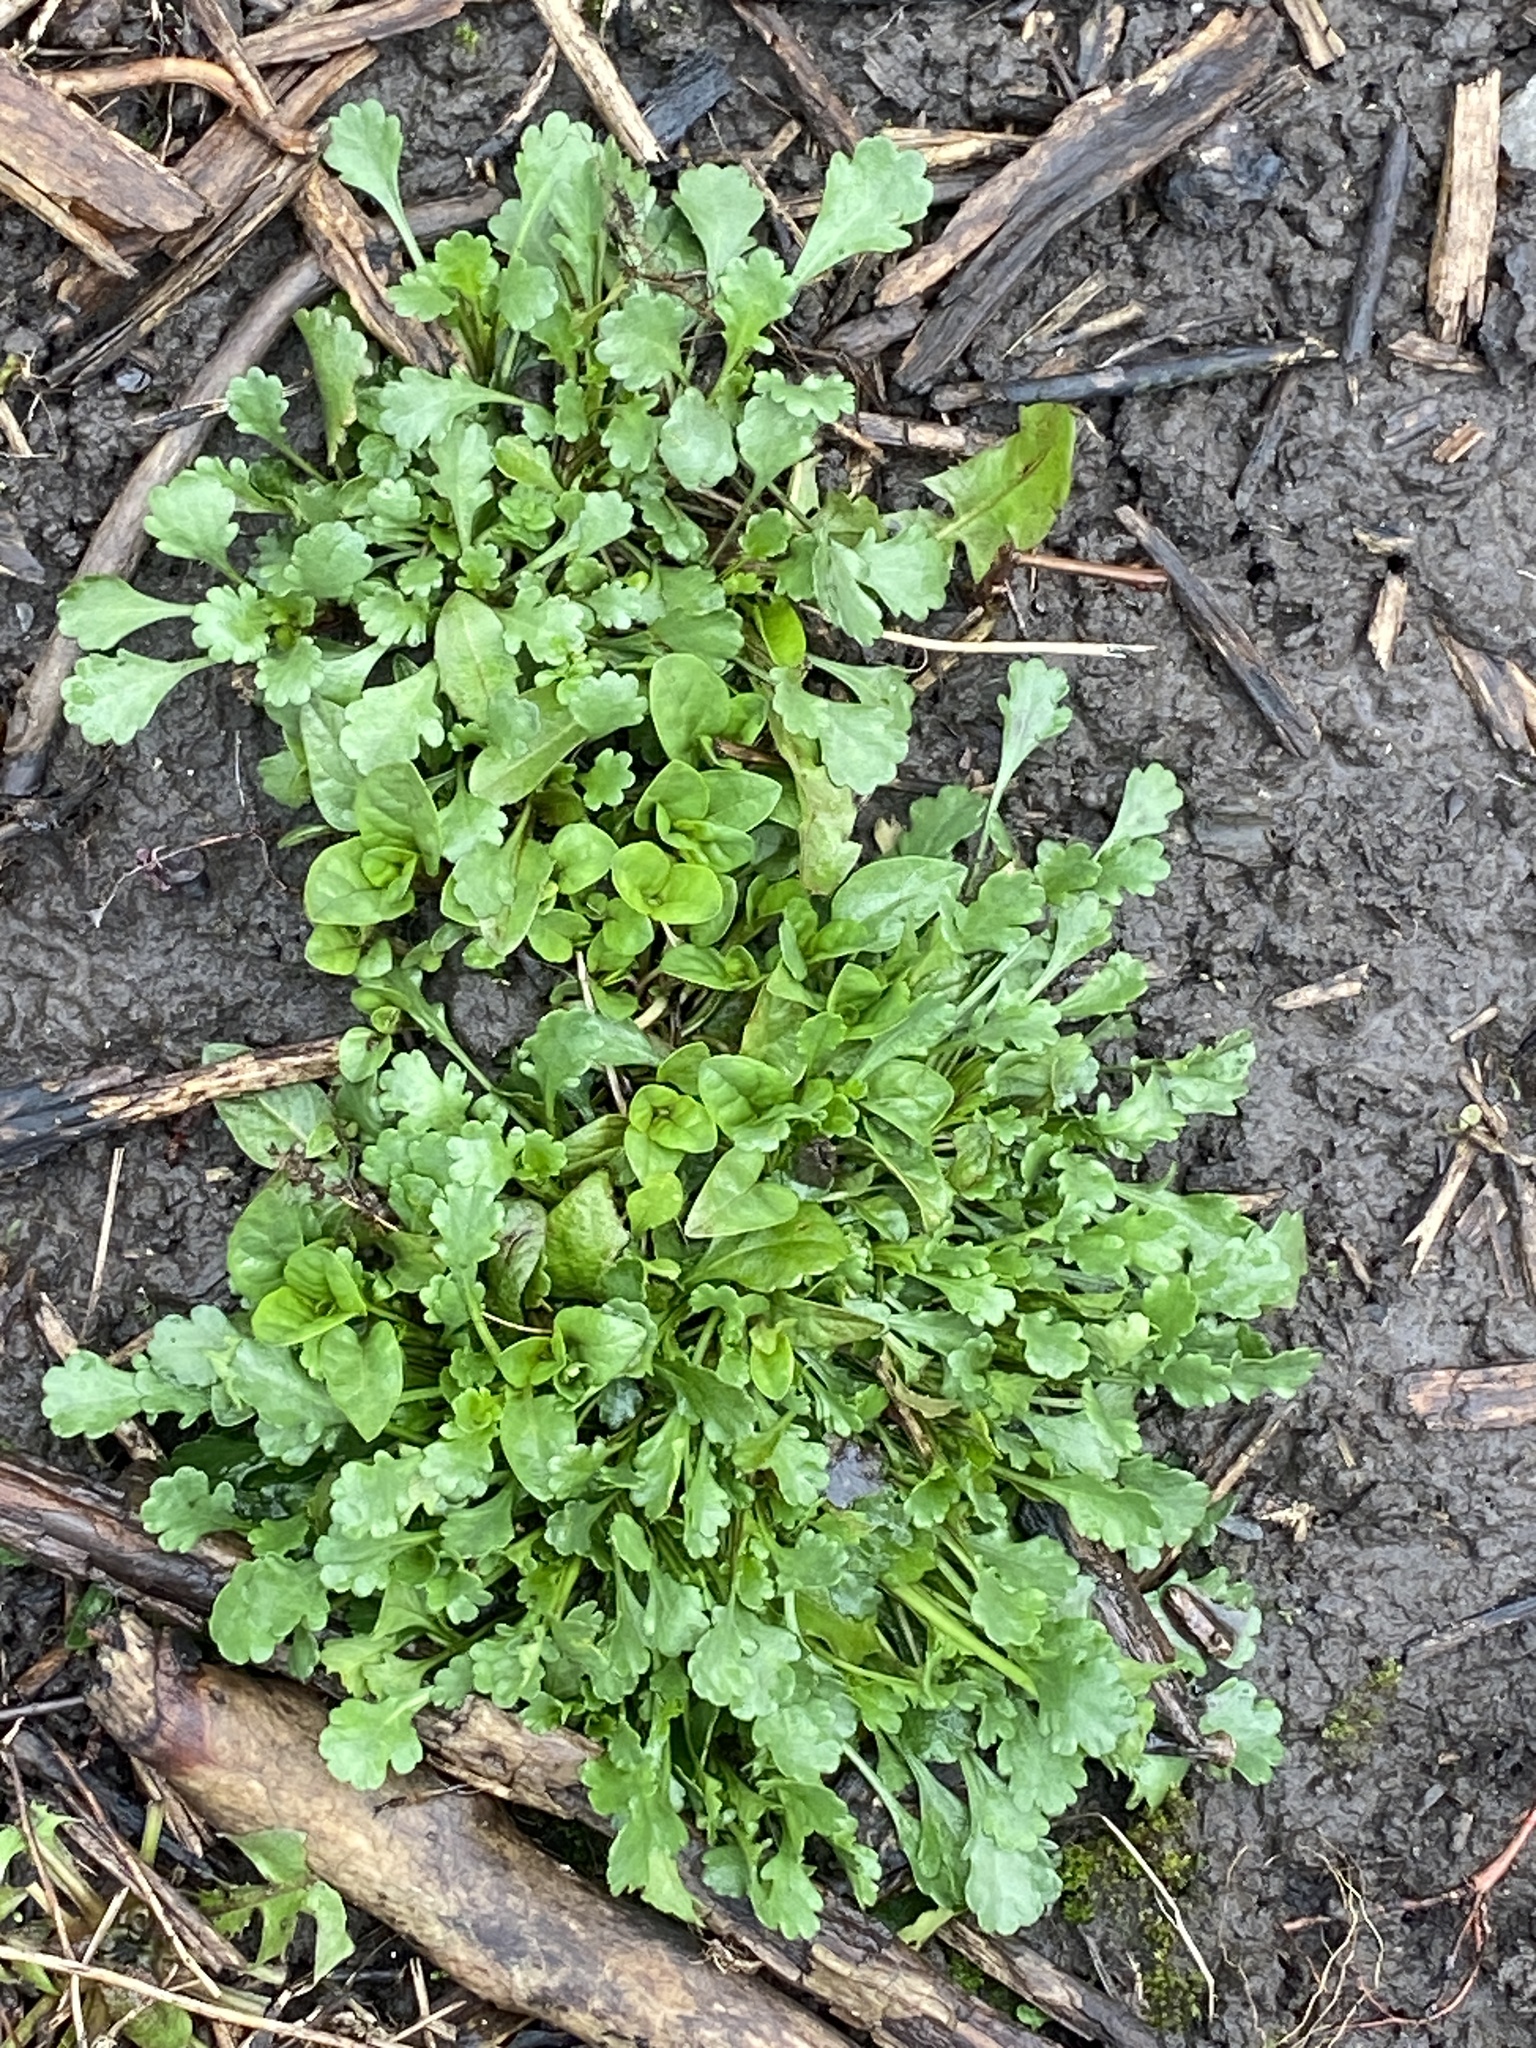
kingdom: Plantae
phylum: Tracheophyta
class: Magnoliopsida
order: Asterales
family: Asteraceae
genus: Leucanthemum
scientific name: Leucanthemum vulgare
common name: Oxeye daisy
